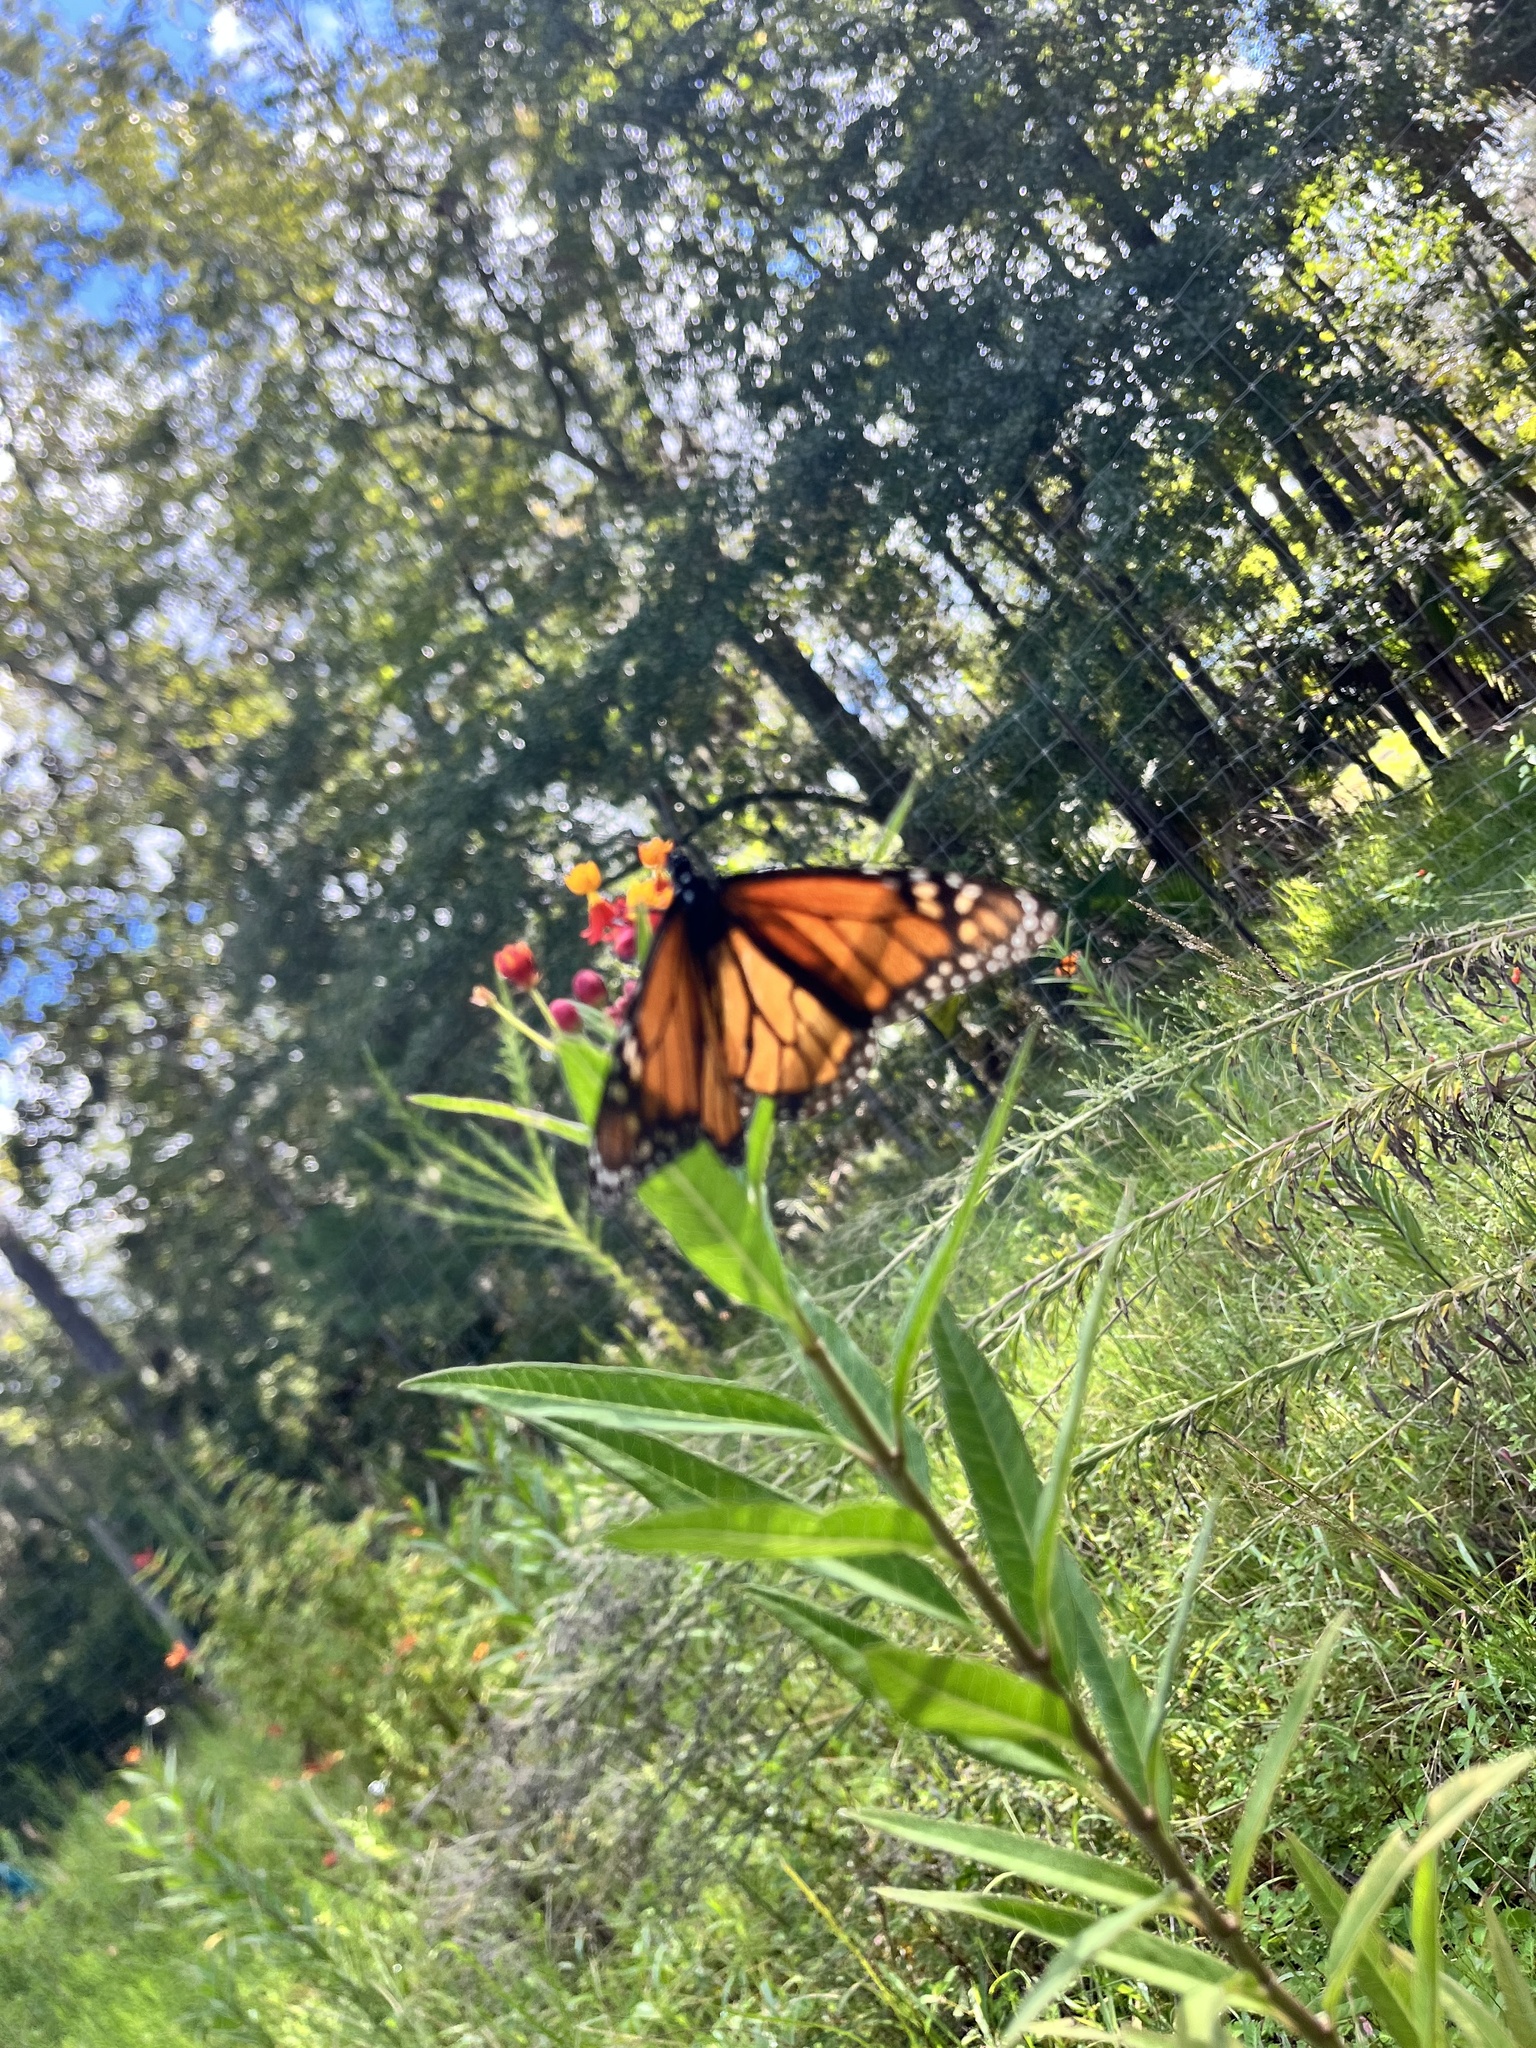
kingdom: Animalia
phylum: Arthropoda
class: Insecta
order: Lepidoptera
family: Nymphalidae
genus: Danaus
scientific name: Danaus plexippus
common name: Monarch
